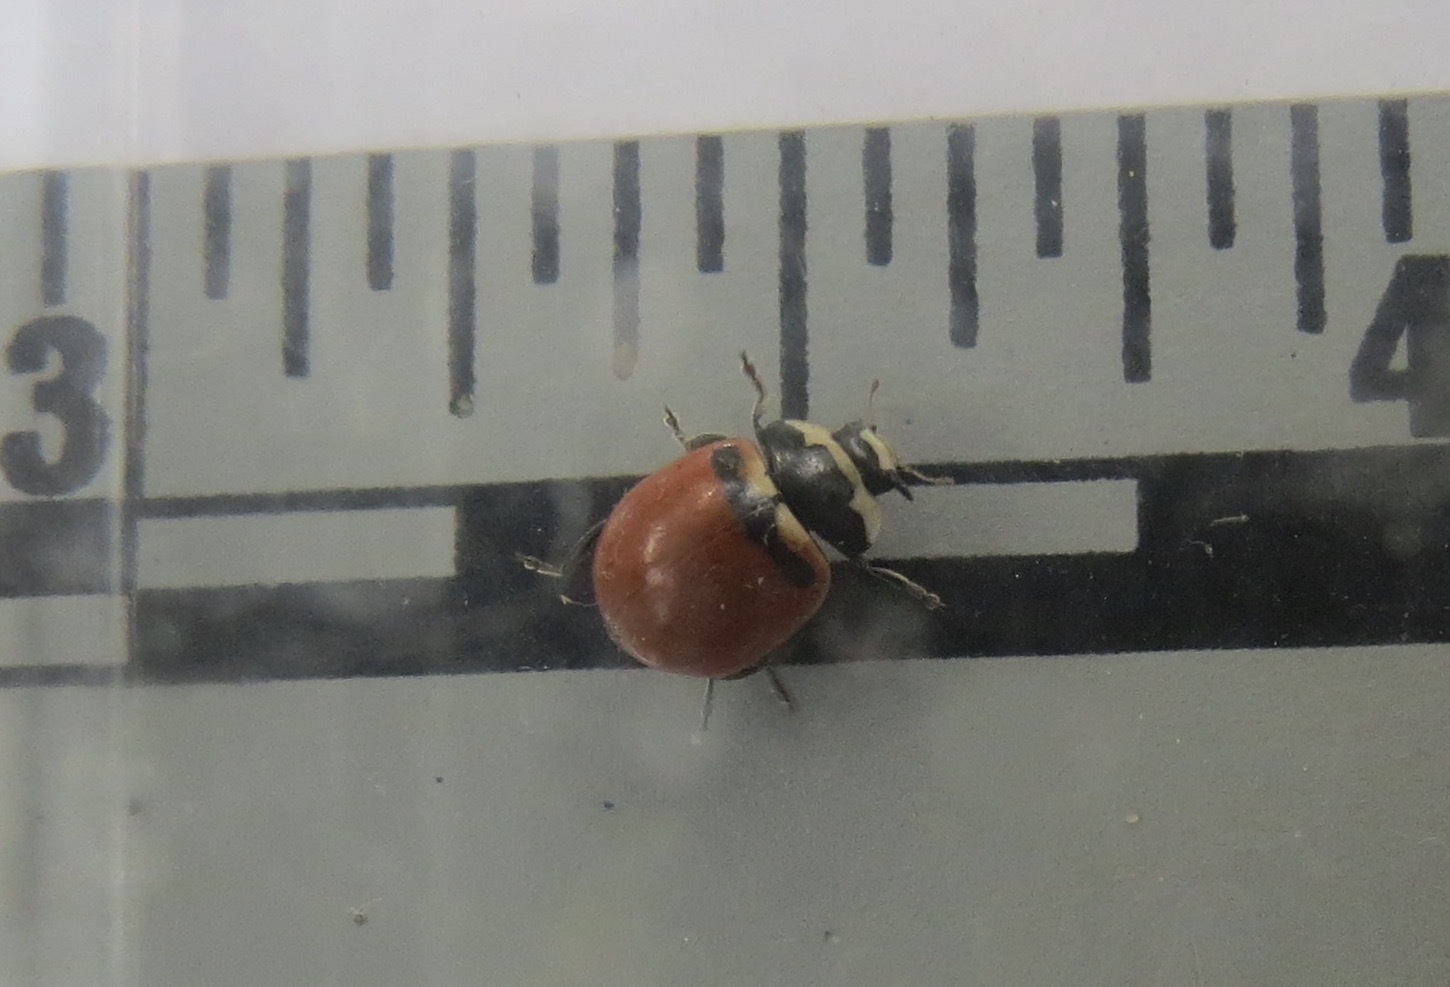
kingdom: Animalia
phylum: Arthropoda
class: Insecta
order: Coleoptera
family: Coccinellidae
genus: Coccinella
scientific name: Coccinella trifasciata
